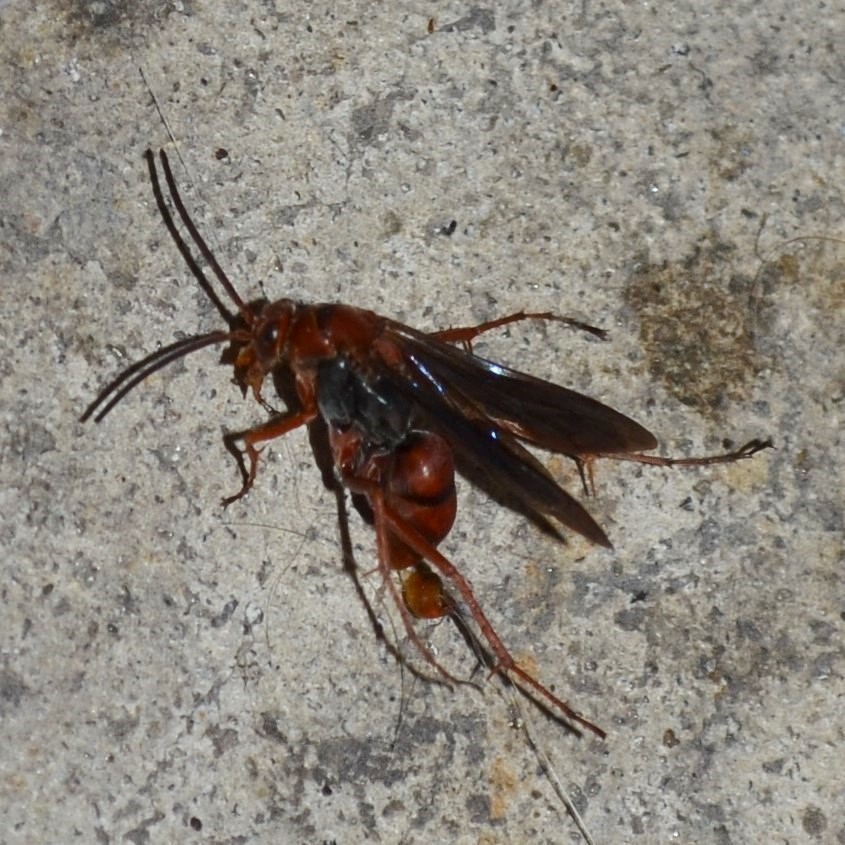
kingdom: Animalia
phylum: Arthropoda
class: Insecta
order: Hymenoptera
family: Pompilidae
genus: Tachypompilus
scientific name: Tachypompilus ferrugineus
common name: Rusty spider wasp
